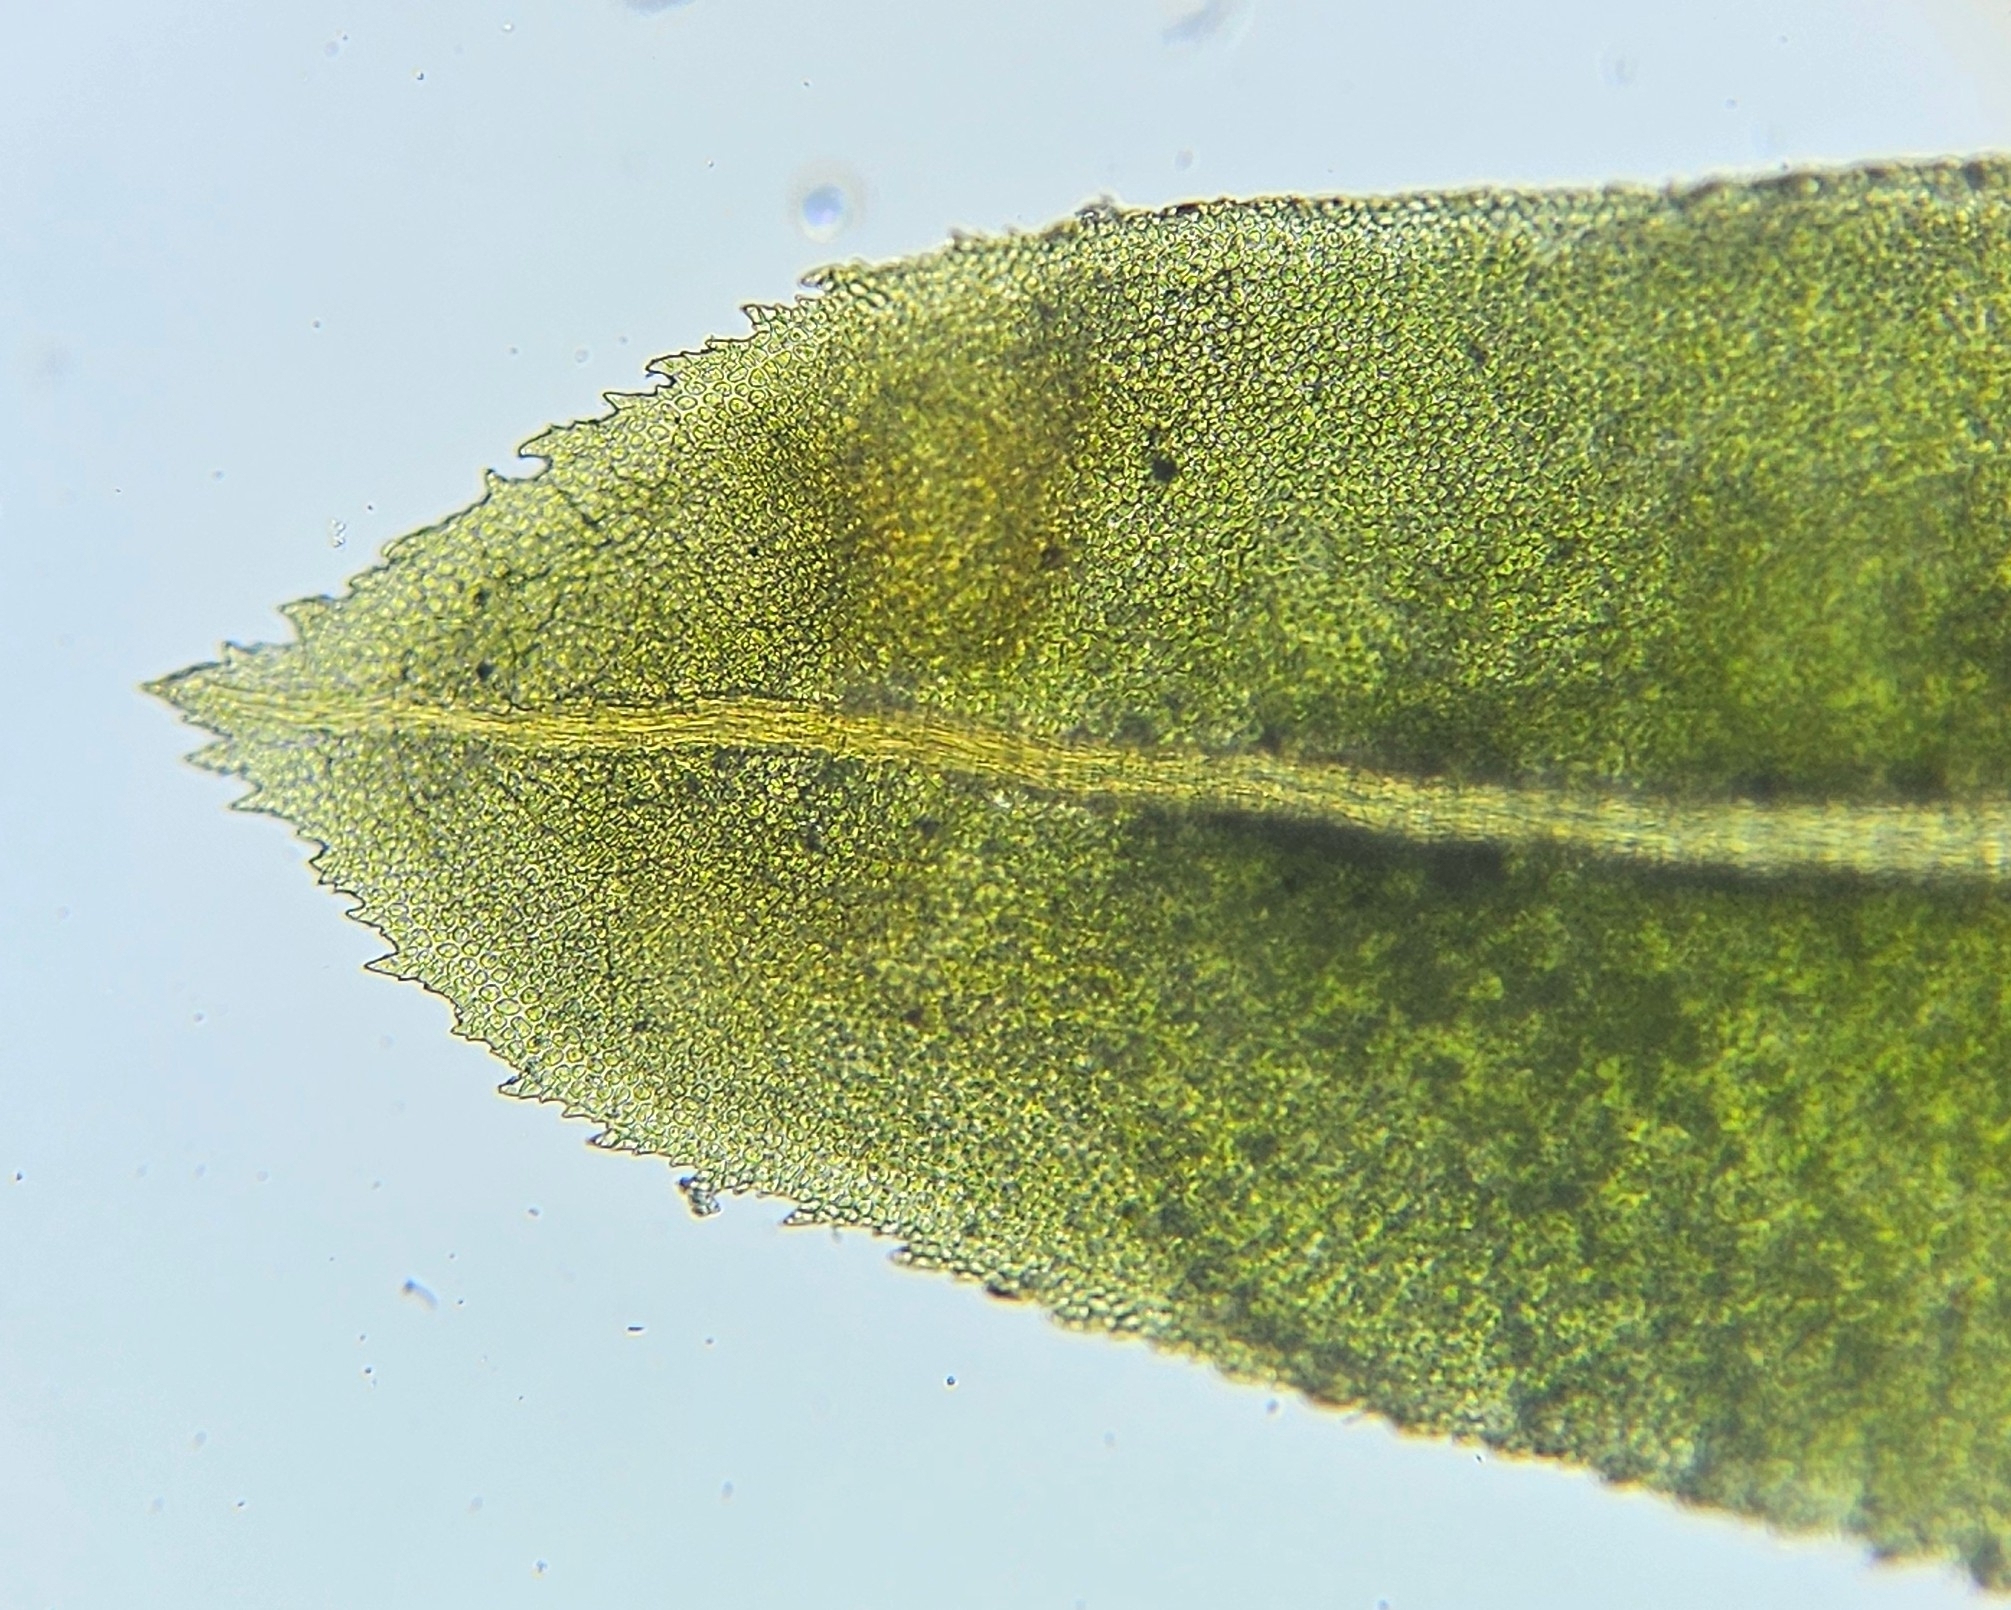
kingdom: Plantae
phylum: Bryophyta
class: Bryopsida
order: Dicranales
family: Fissidentaceae
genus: Fissidens
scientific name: Fissidens dubius
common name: Rock pocket moss
